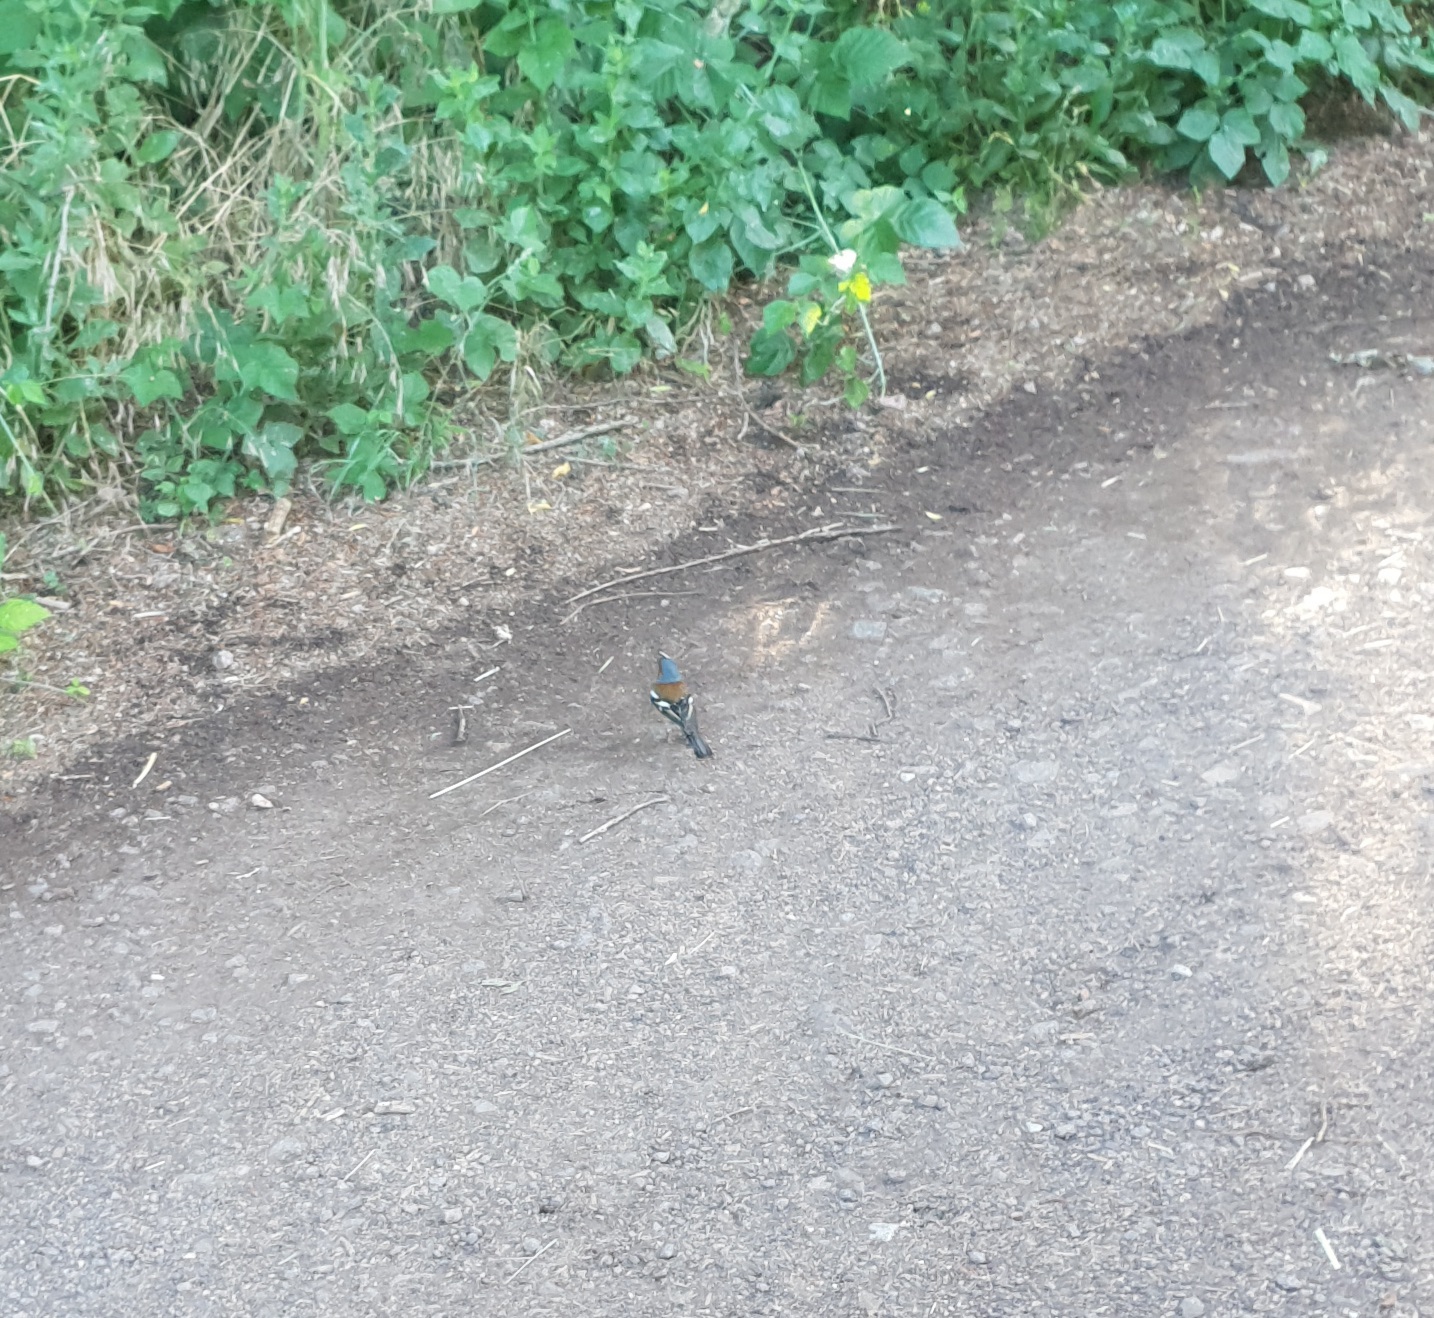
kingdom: Animalia
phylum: Chordata
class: Aves
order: Passeriformes
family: Fringillidae
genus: Fringilla
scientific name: Fringilla coelebs
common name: Common chaffinch
